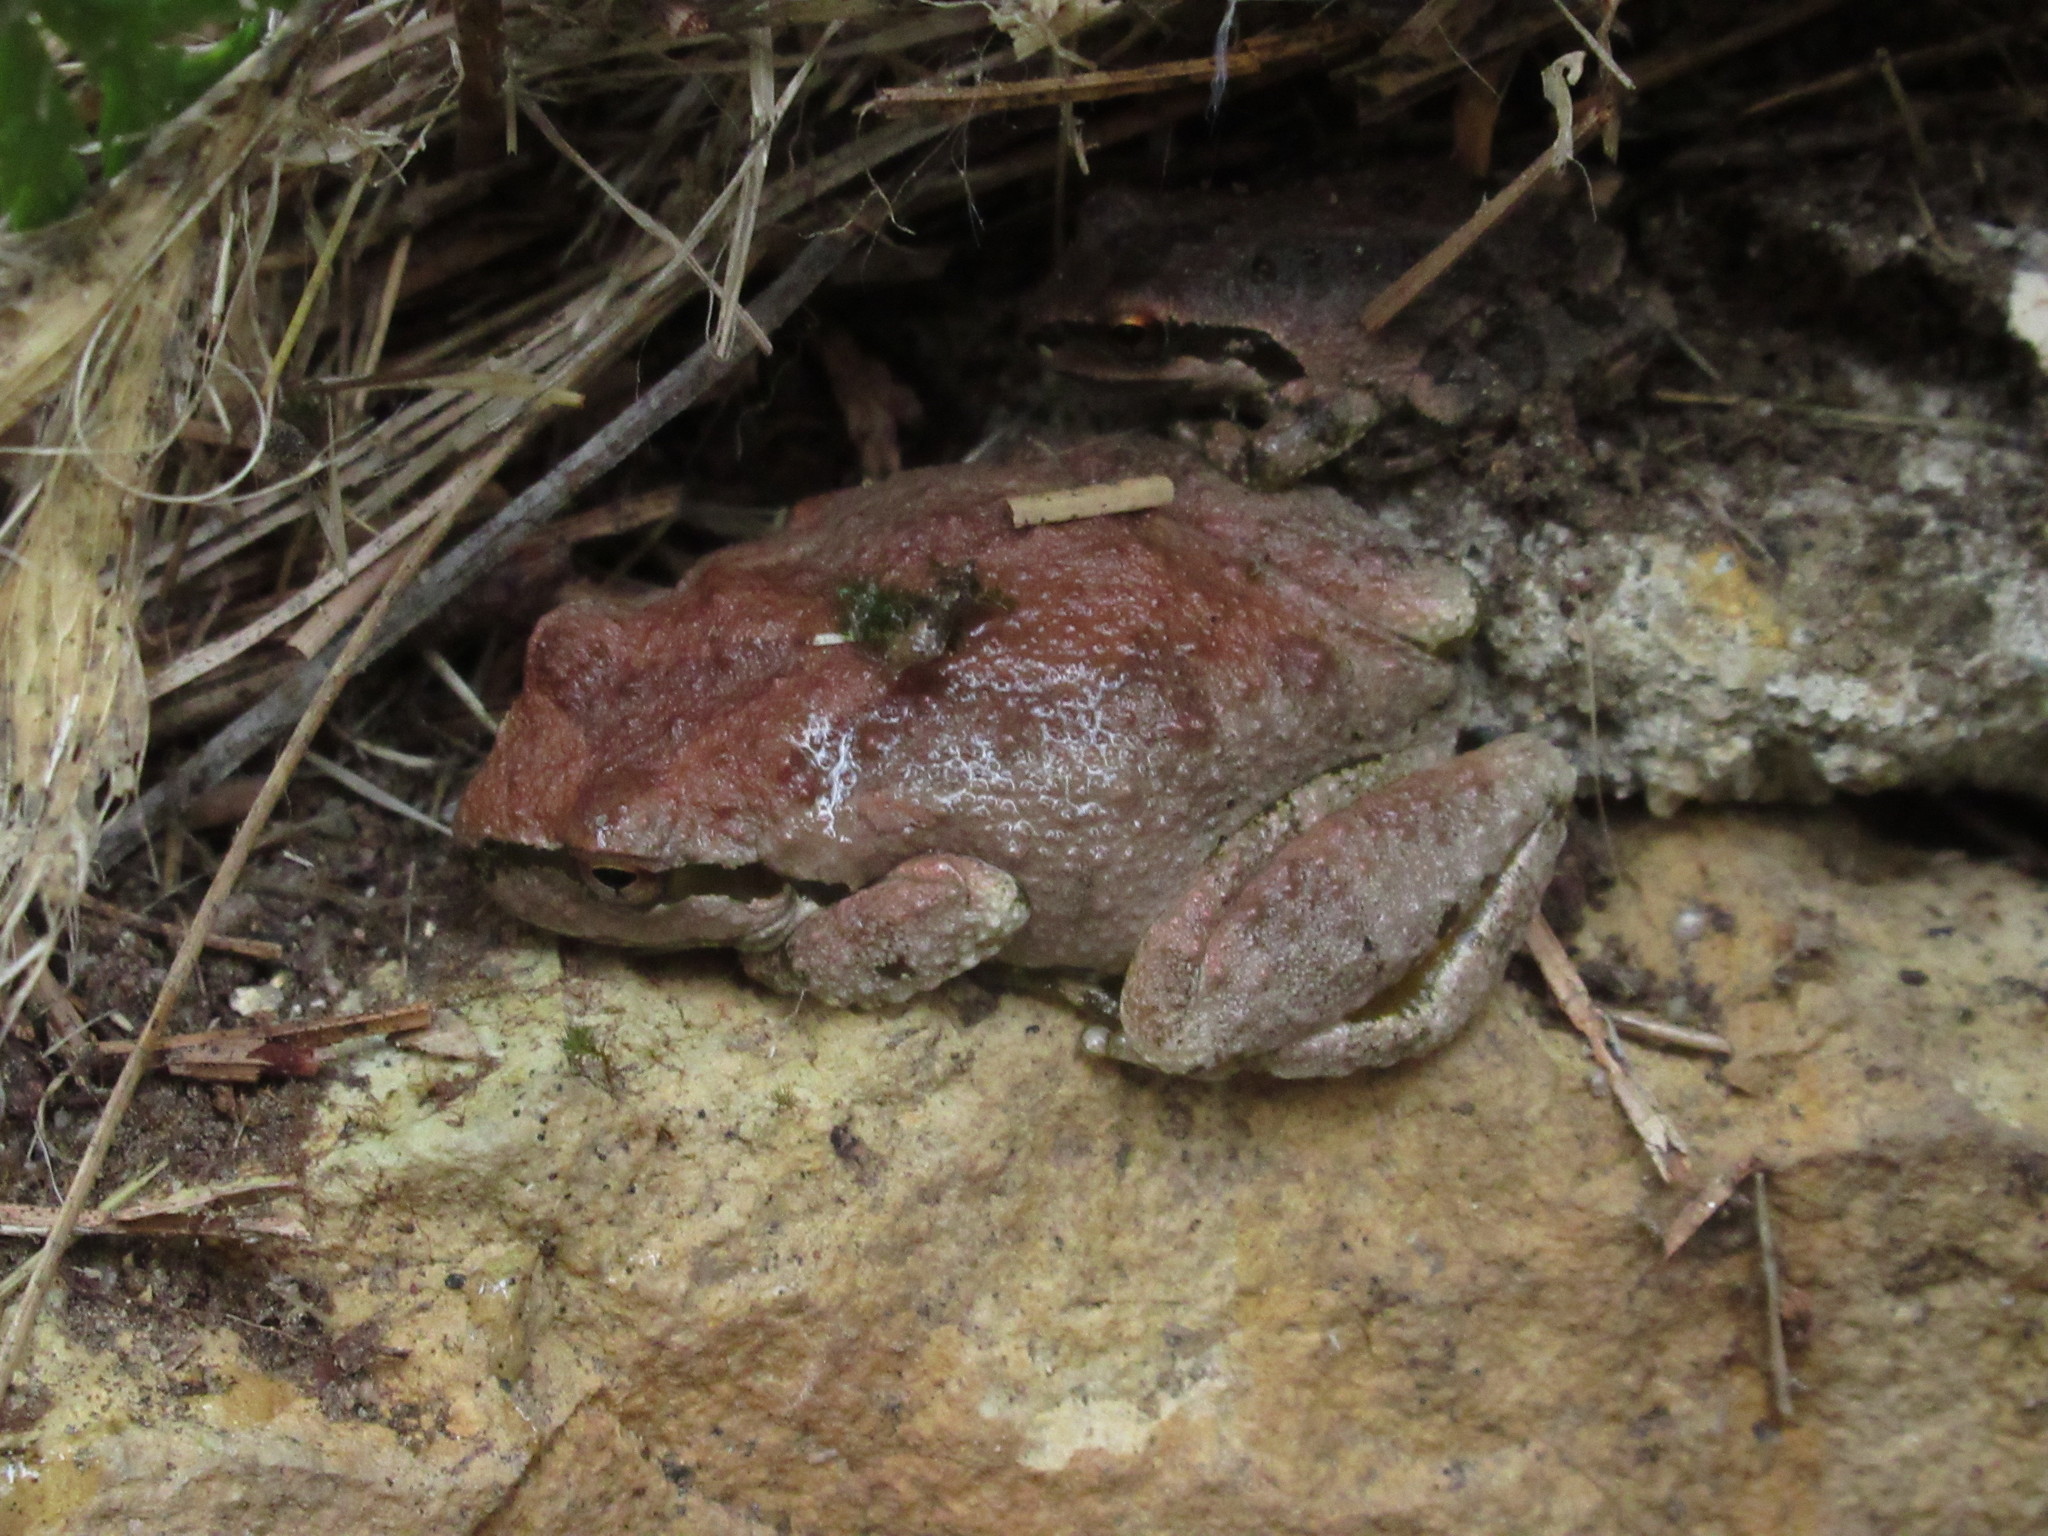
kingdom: Animalia
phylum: Chordata
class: Amphibia
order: Anura
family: Hylidae
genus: Pseudacris
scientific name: Pseudacris regilla
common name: Pacific chorus frog
